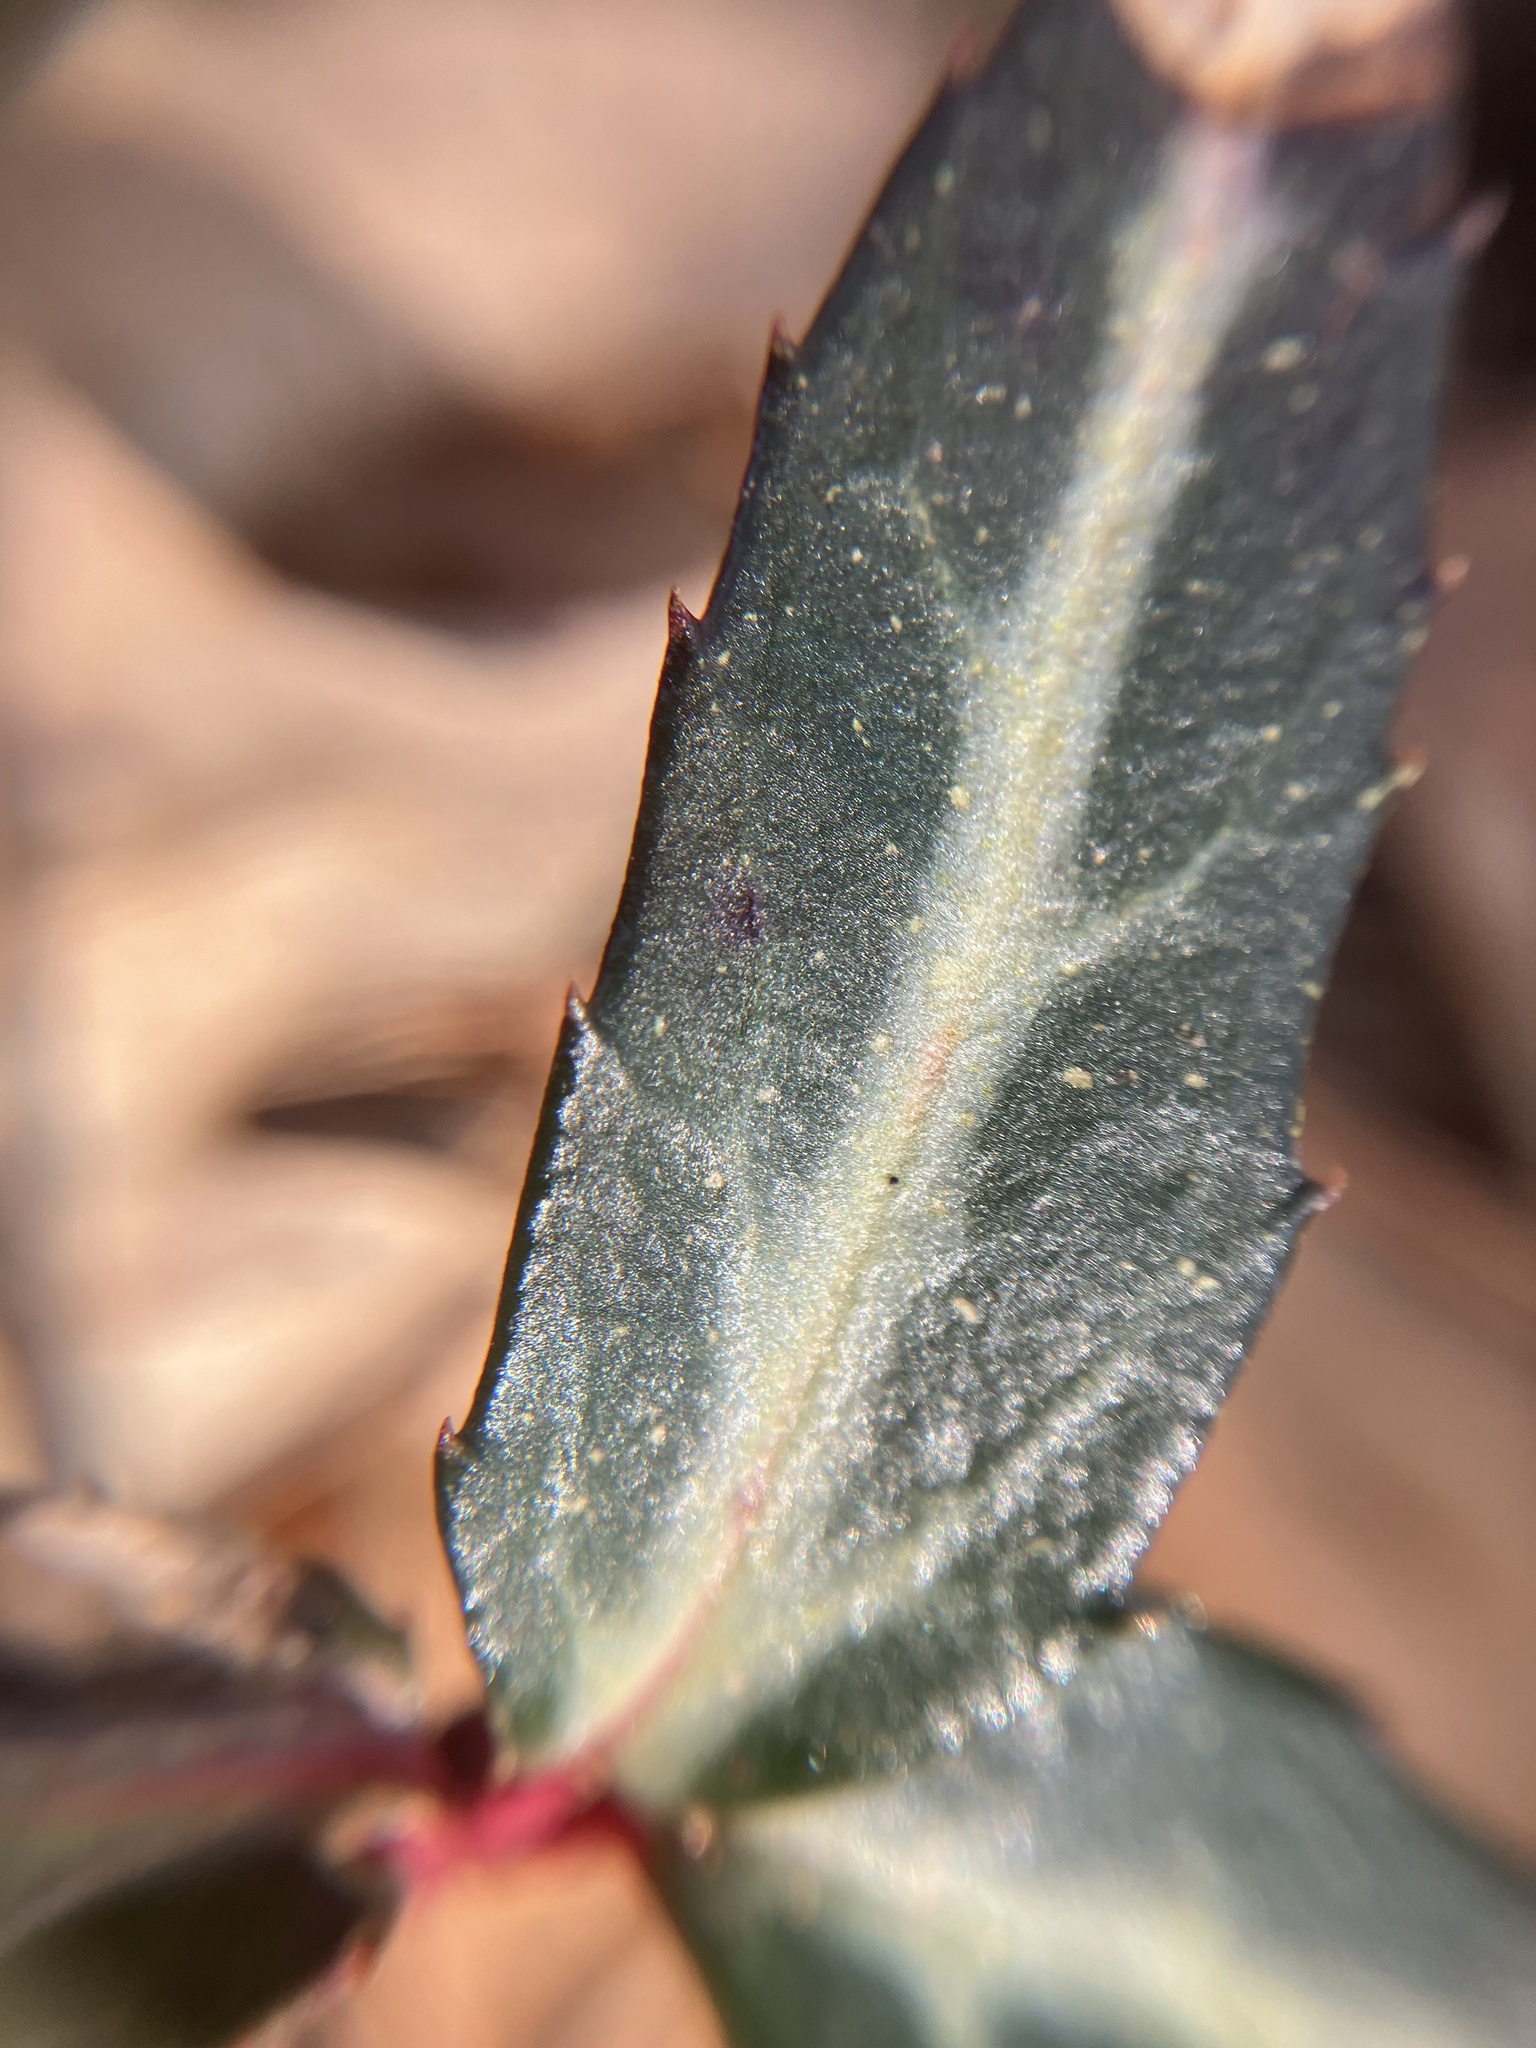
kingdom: Plantae
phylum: Tracheophyta
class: Magnoliopsida
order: Ericales
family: Ericaceae
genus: Chimaphila
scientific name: Chimaphila maculata
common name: Spotted pipsissewa
